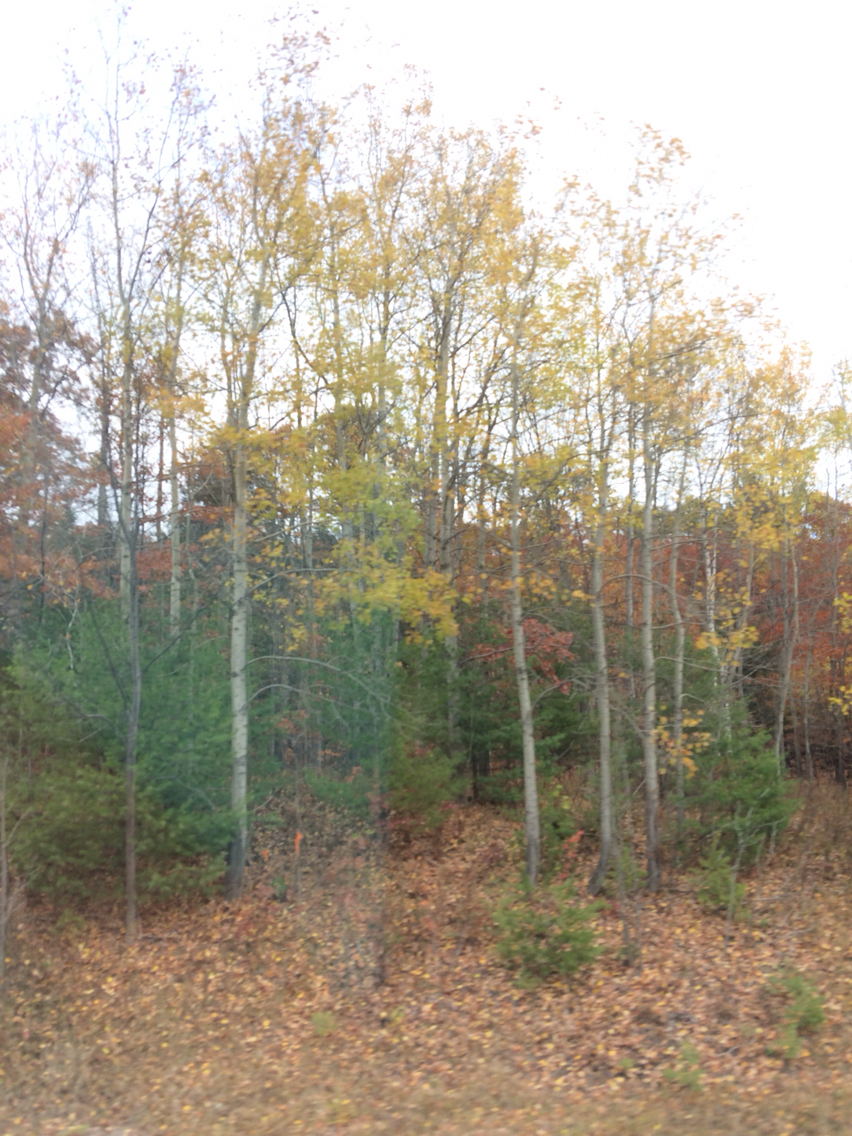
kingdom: Plantae
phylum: Tracheophyta
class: Magnoliopsida
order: Malpighiales
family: Salicaceae
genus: Populus
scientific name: Populus tremuloides
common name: Quaking aspen
